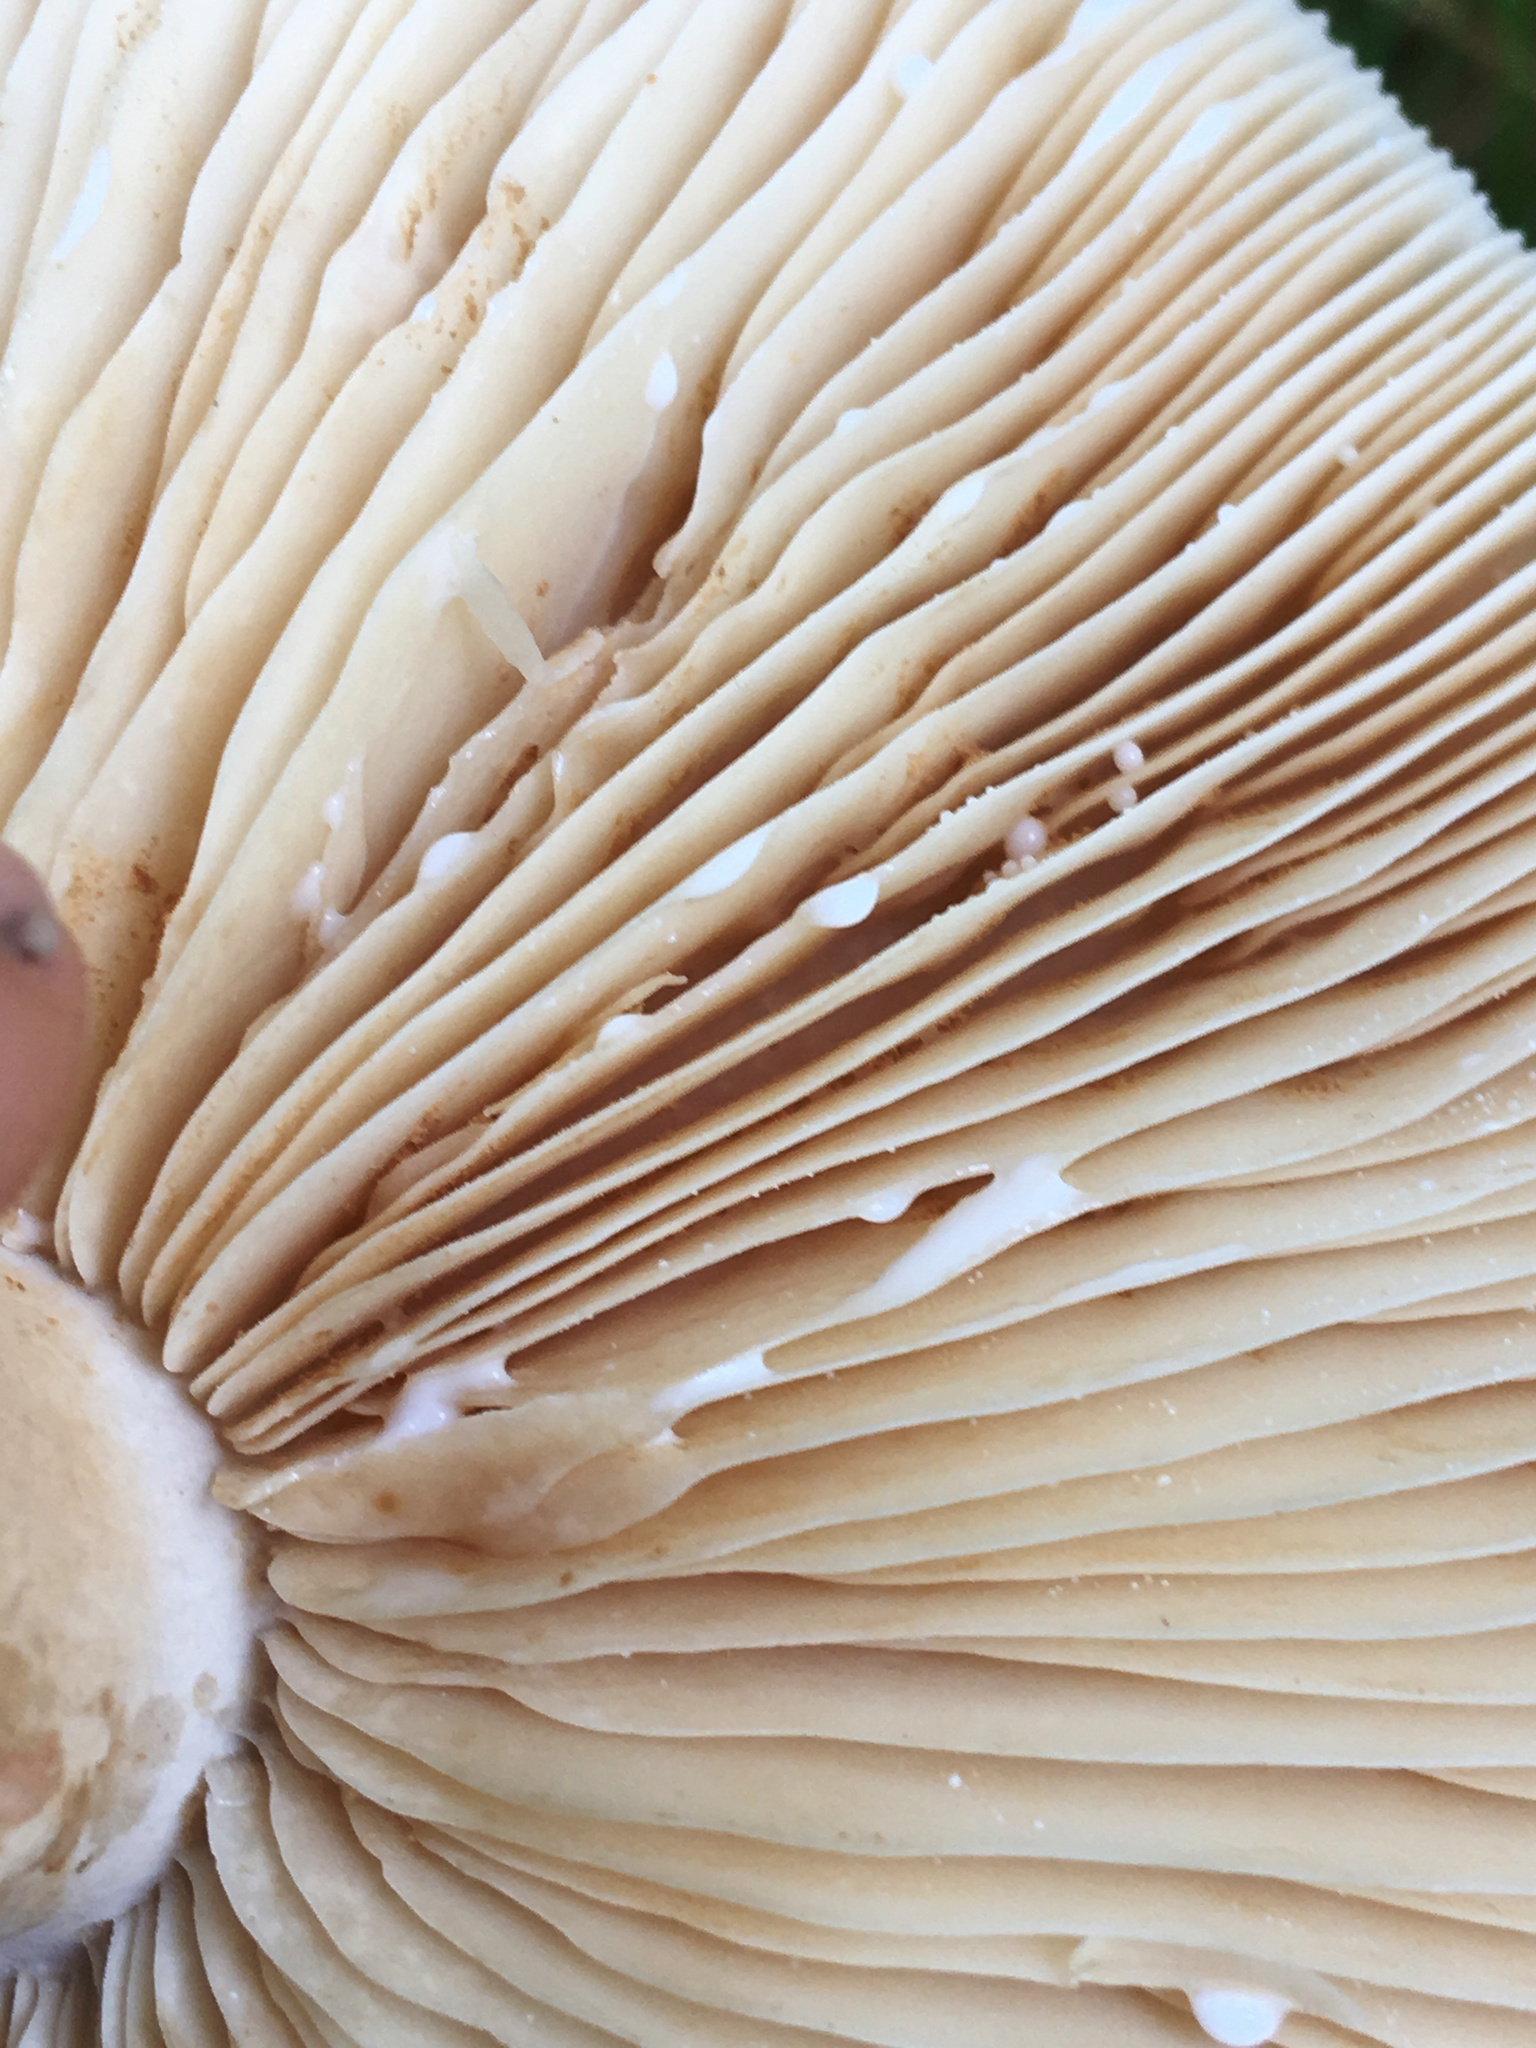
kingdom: Fungi
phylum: Basidiomycota
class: Agaricomycetes
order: Russulales
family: Russulaceae
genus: Lactarius
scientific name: Lactarius fumosus
